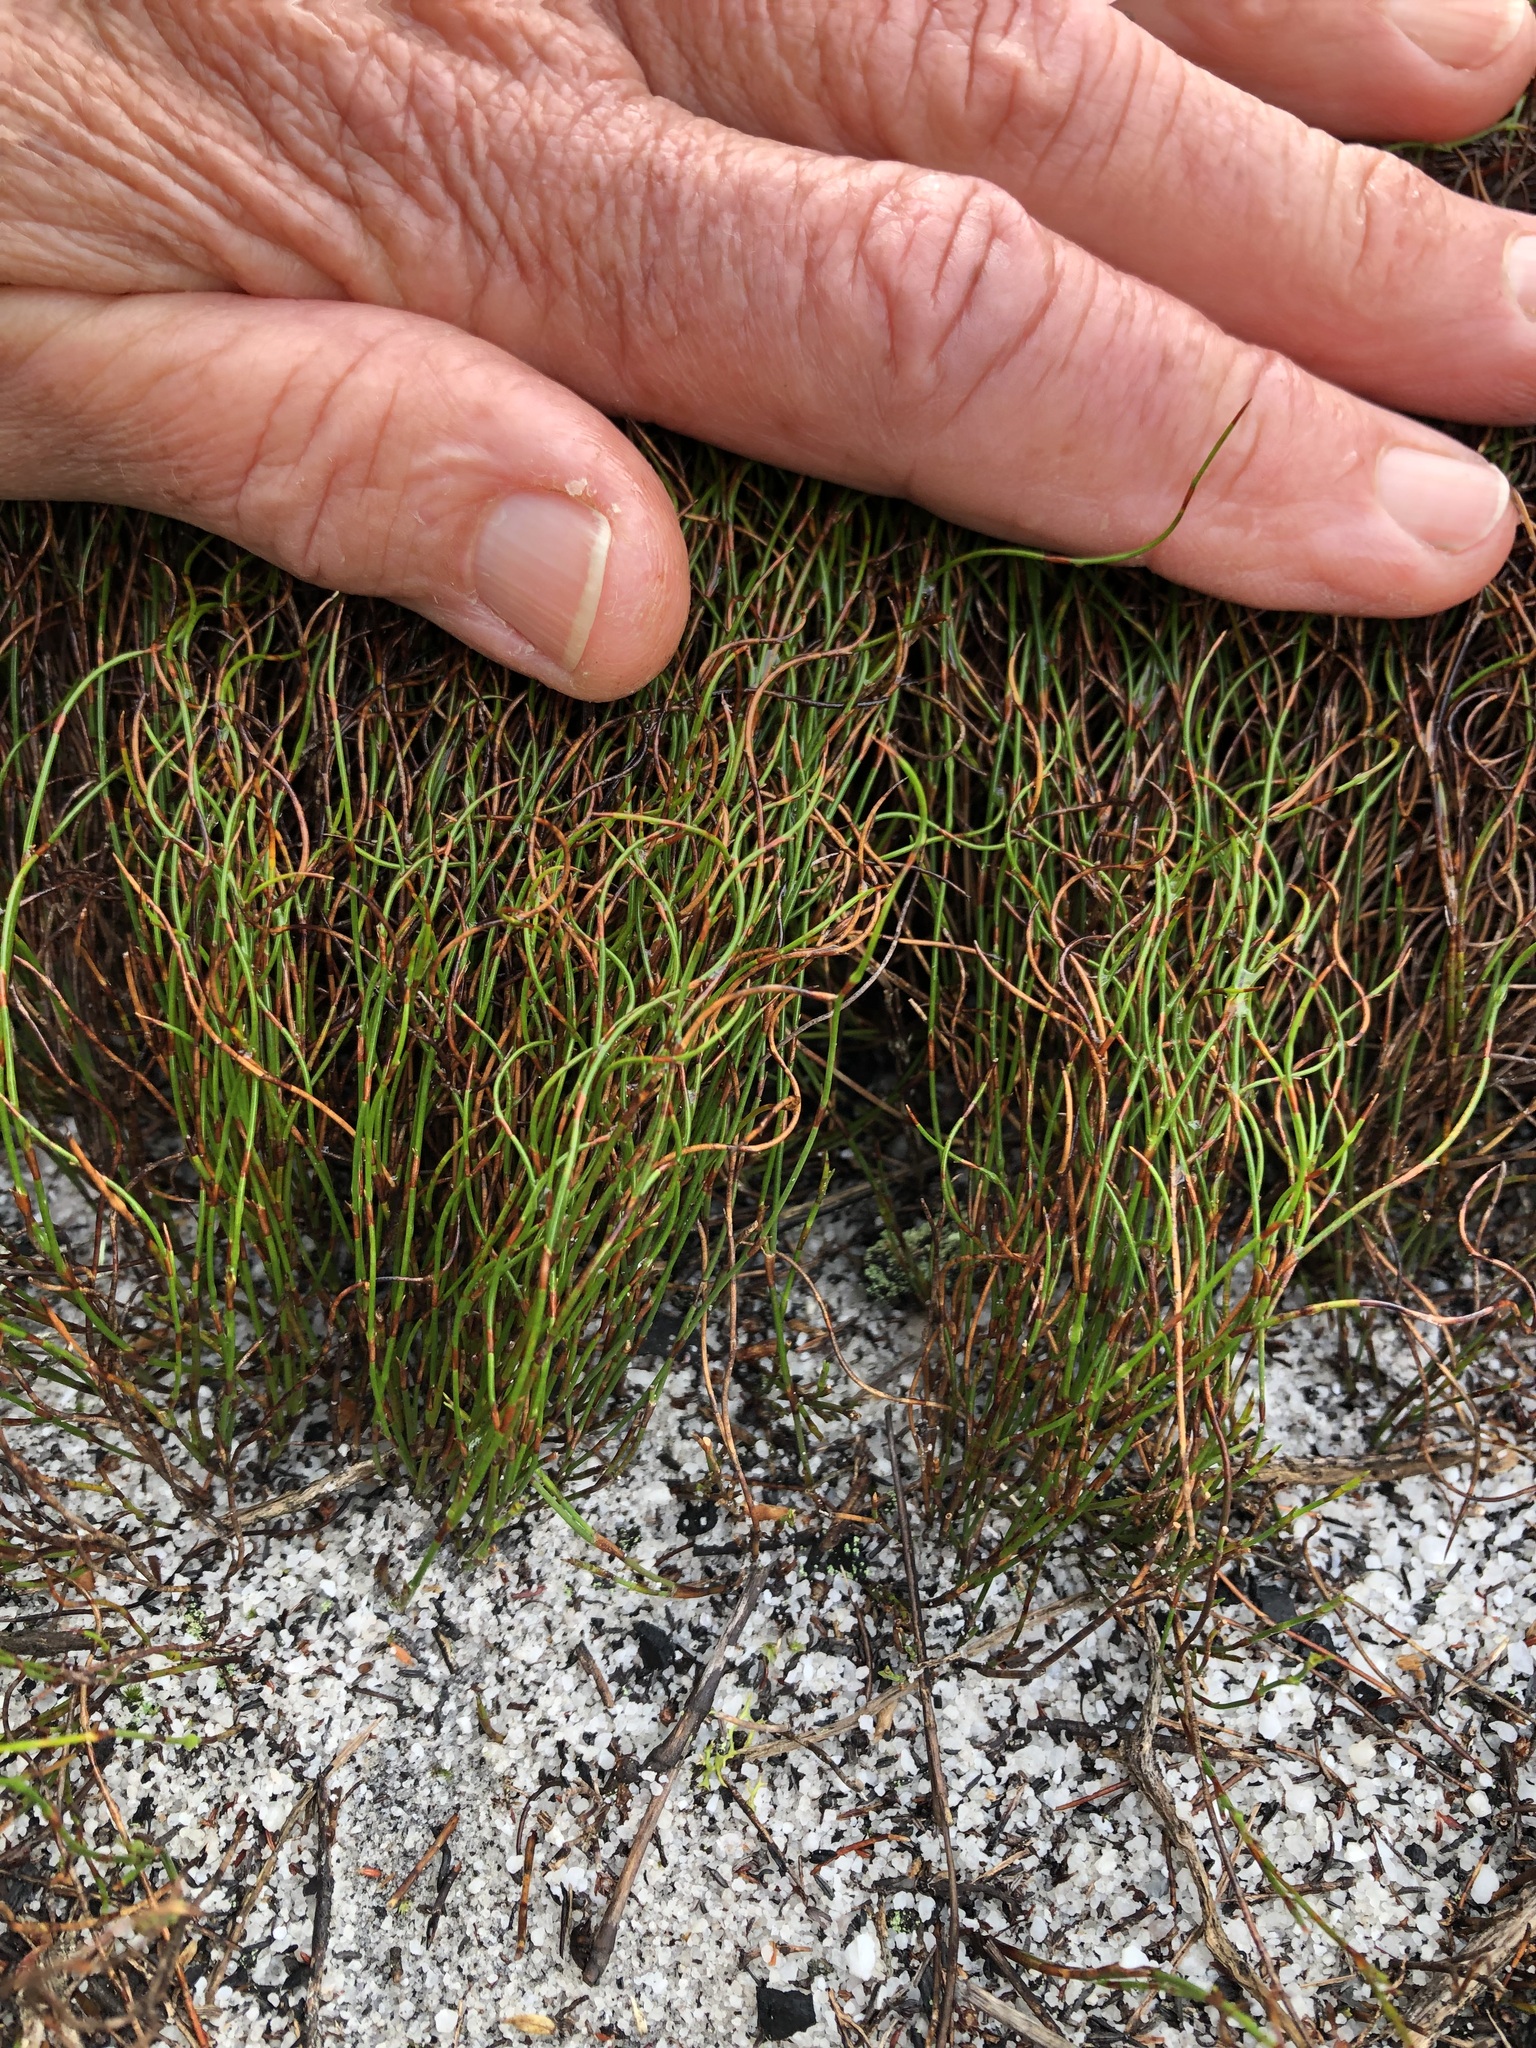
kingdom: Plantae
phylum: Tracheophyta
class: Liliopsida
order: Poales
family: Restionaceae
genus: Restio
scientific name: Restio cincinnatus
